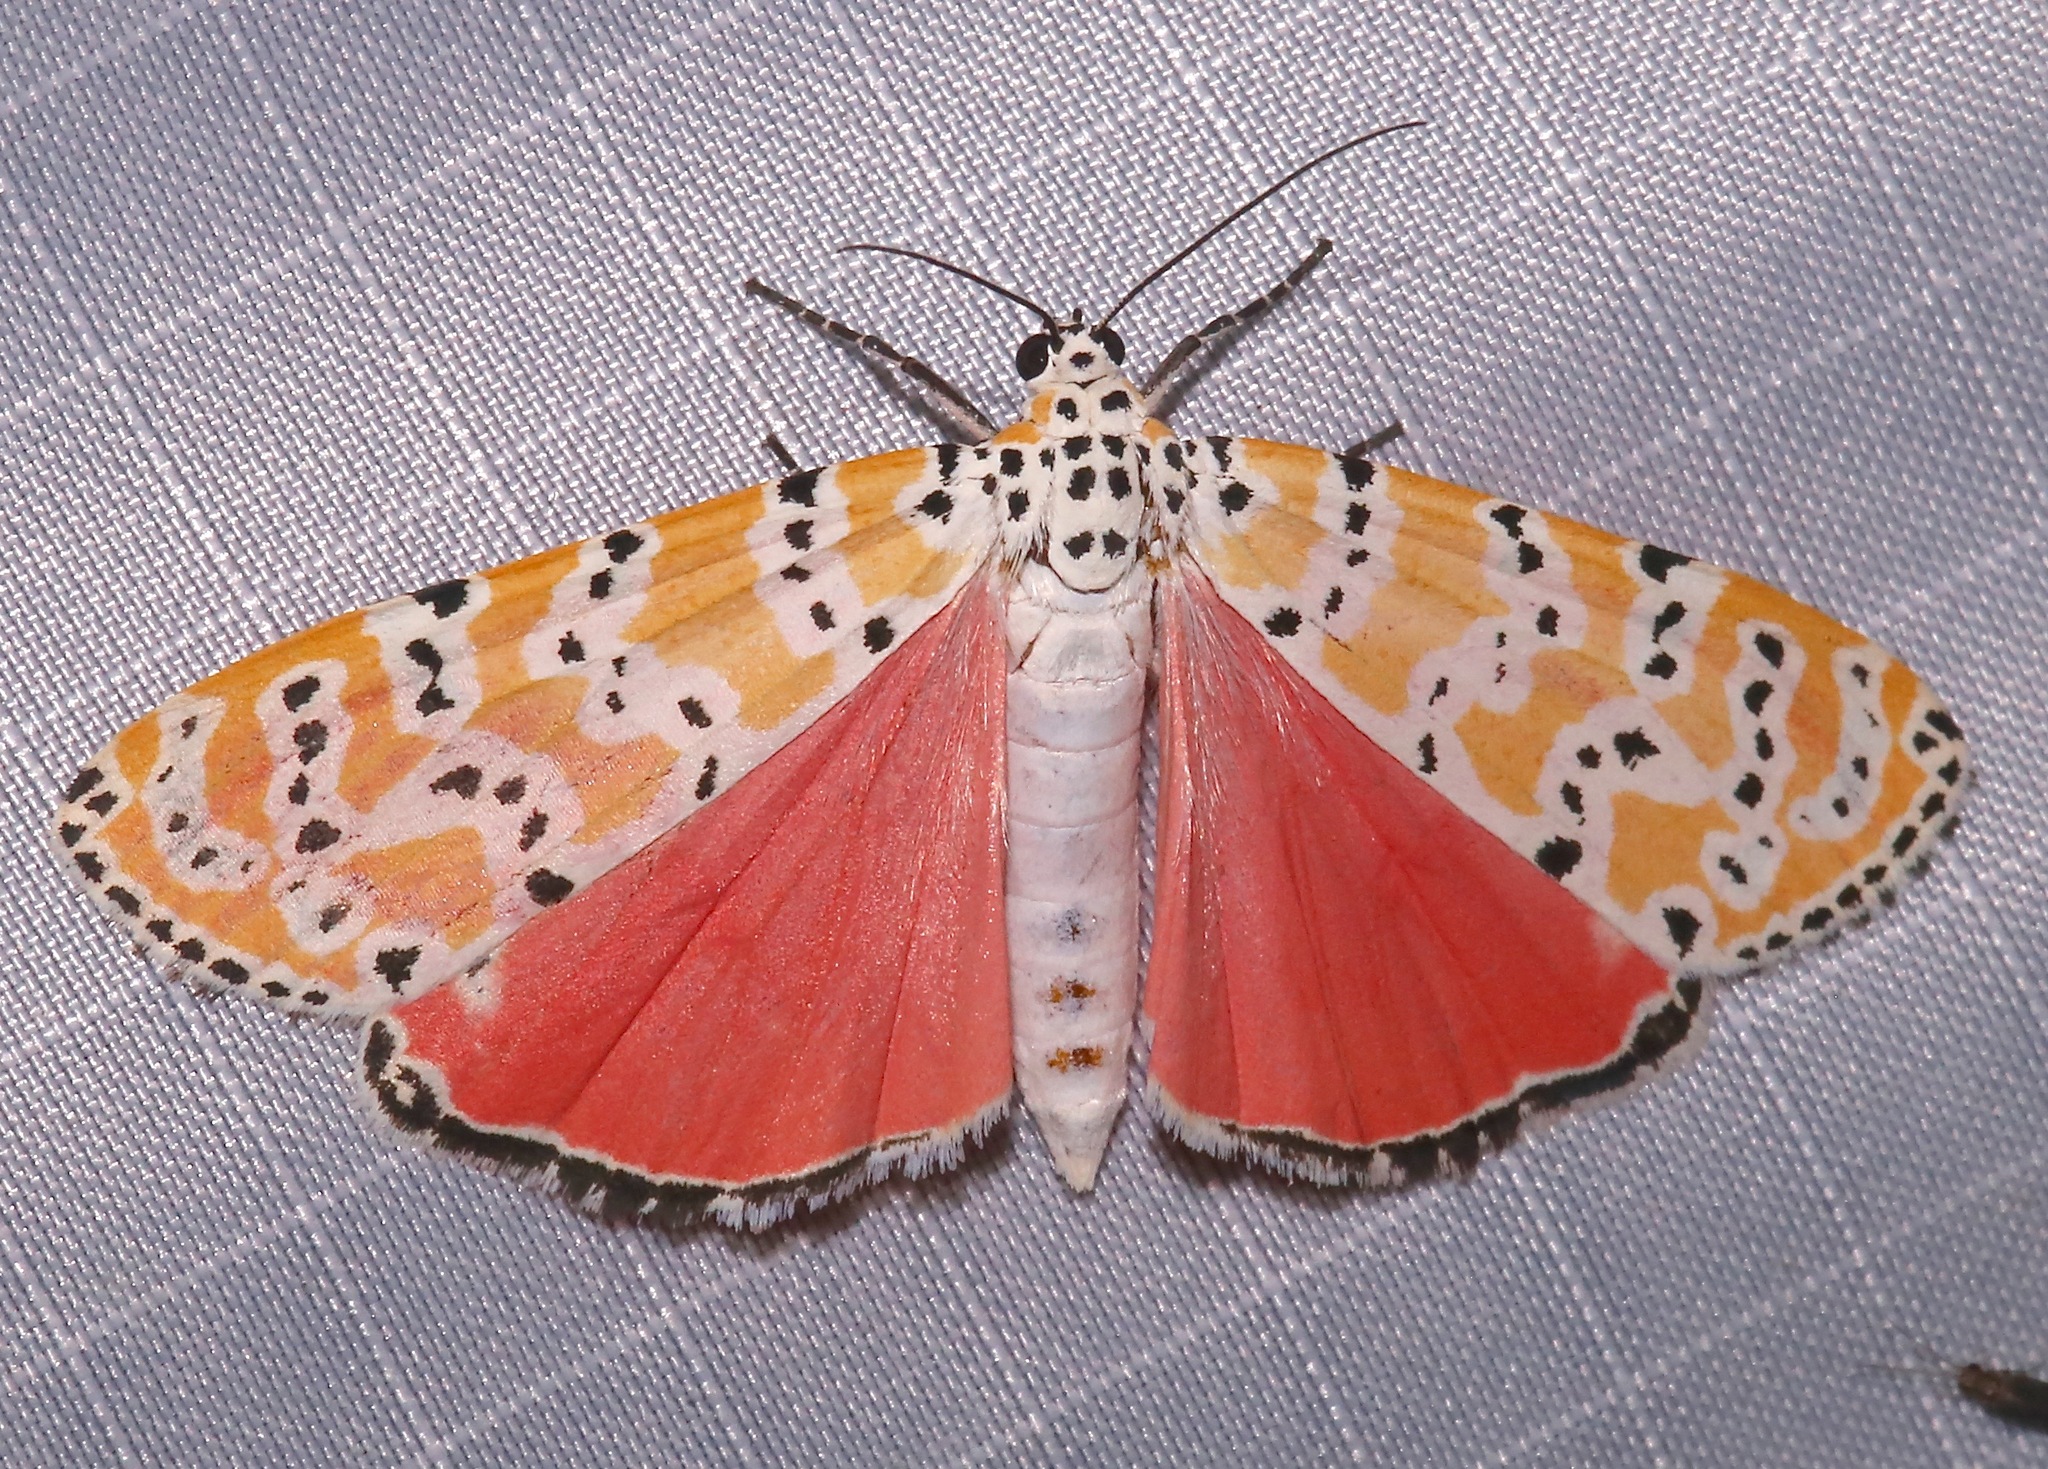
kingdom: Animalia
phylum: Arthropoda
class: Insecta
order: Lepidoptera
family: Erebidae
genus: Utetheisa
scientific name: Utetheisa ornatrix
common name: Beautiful utetheisa
